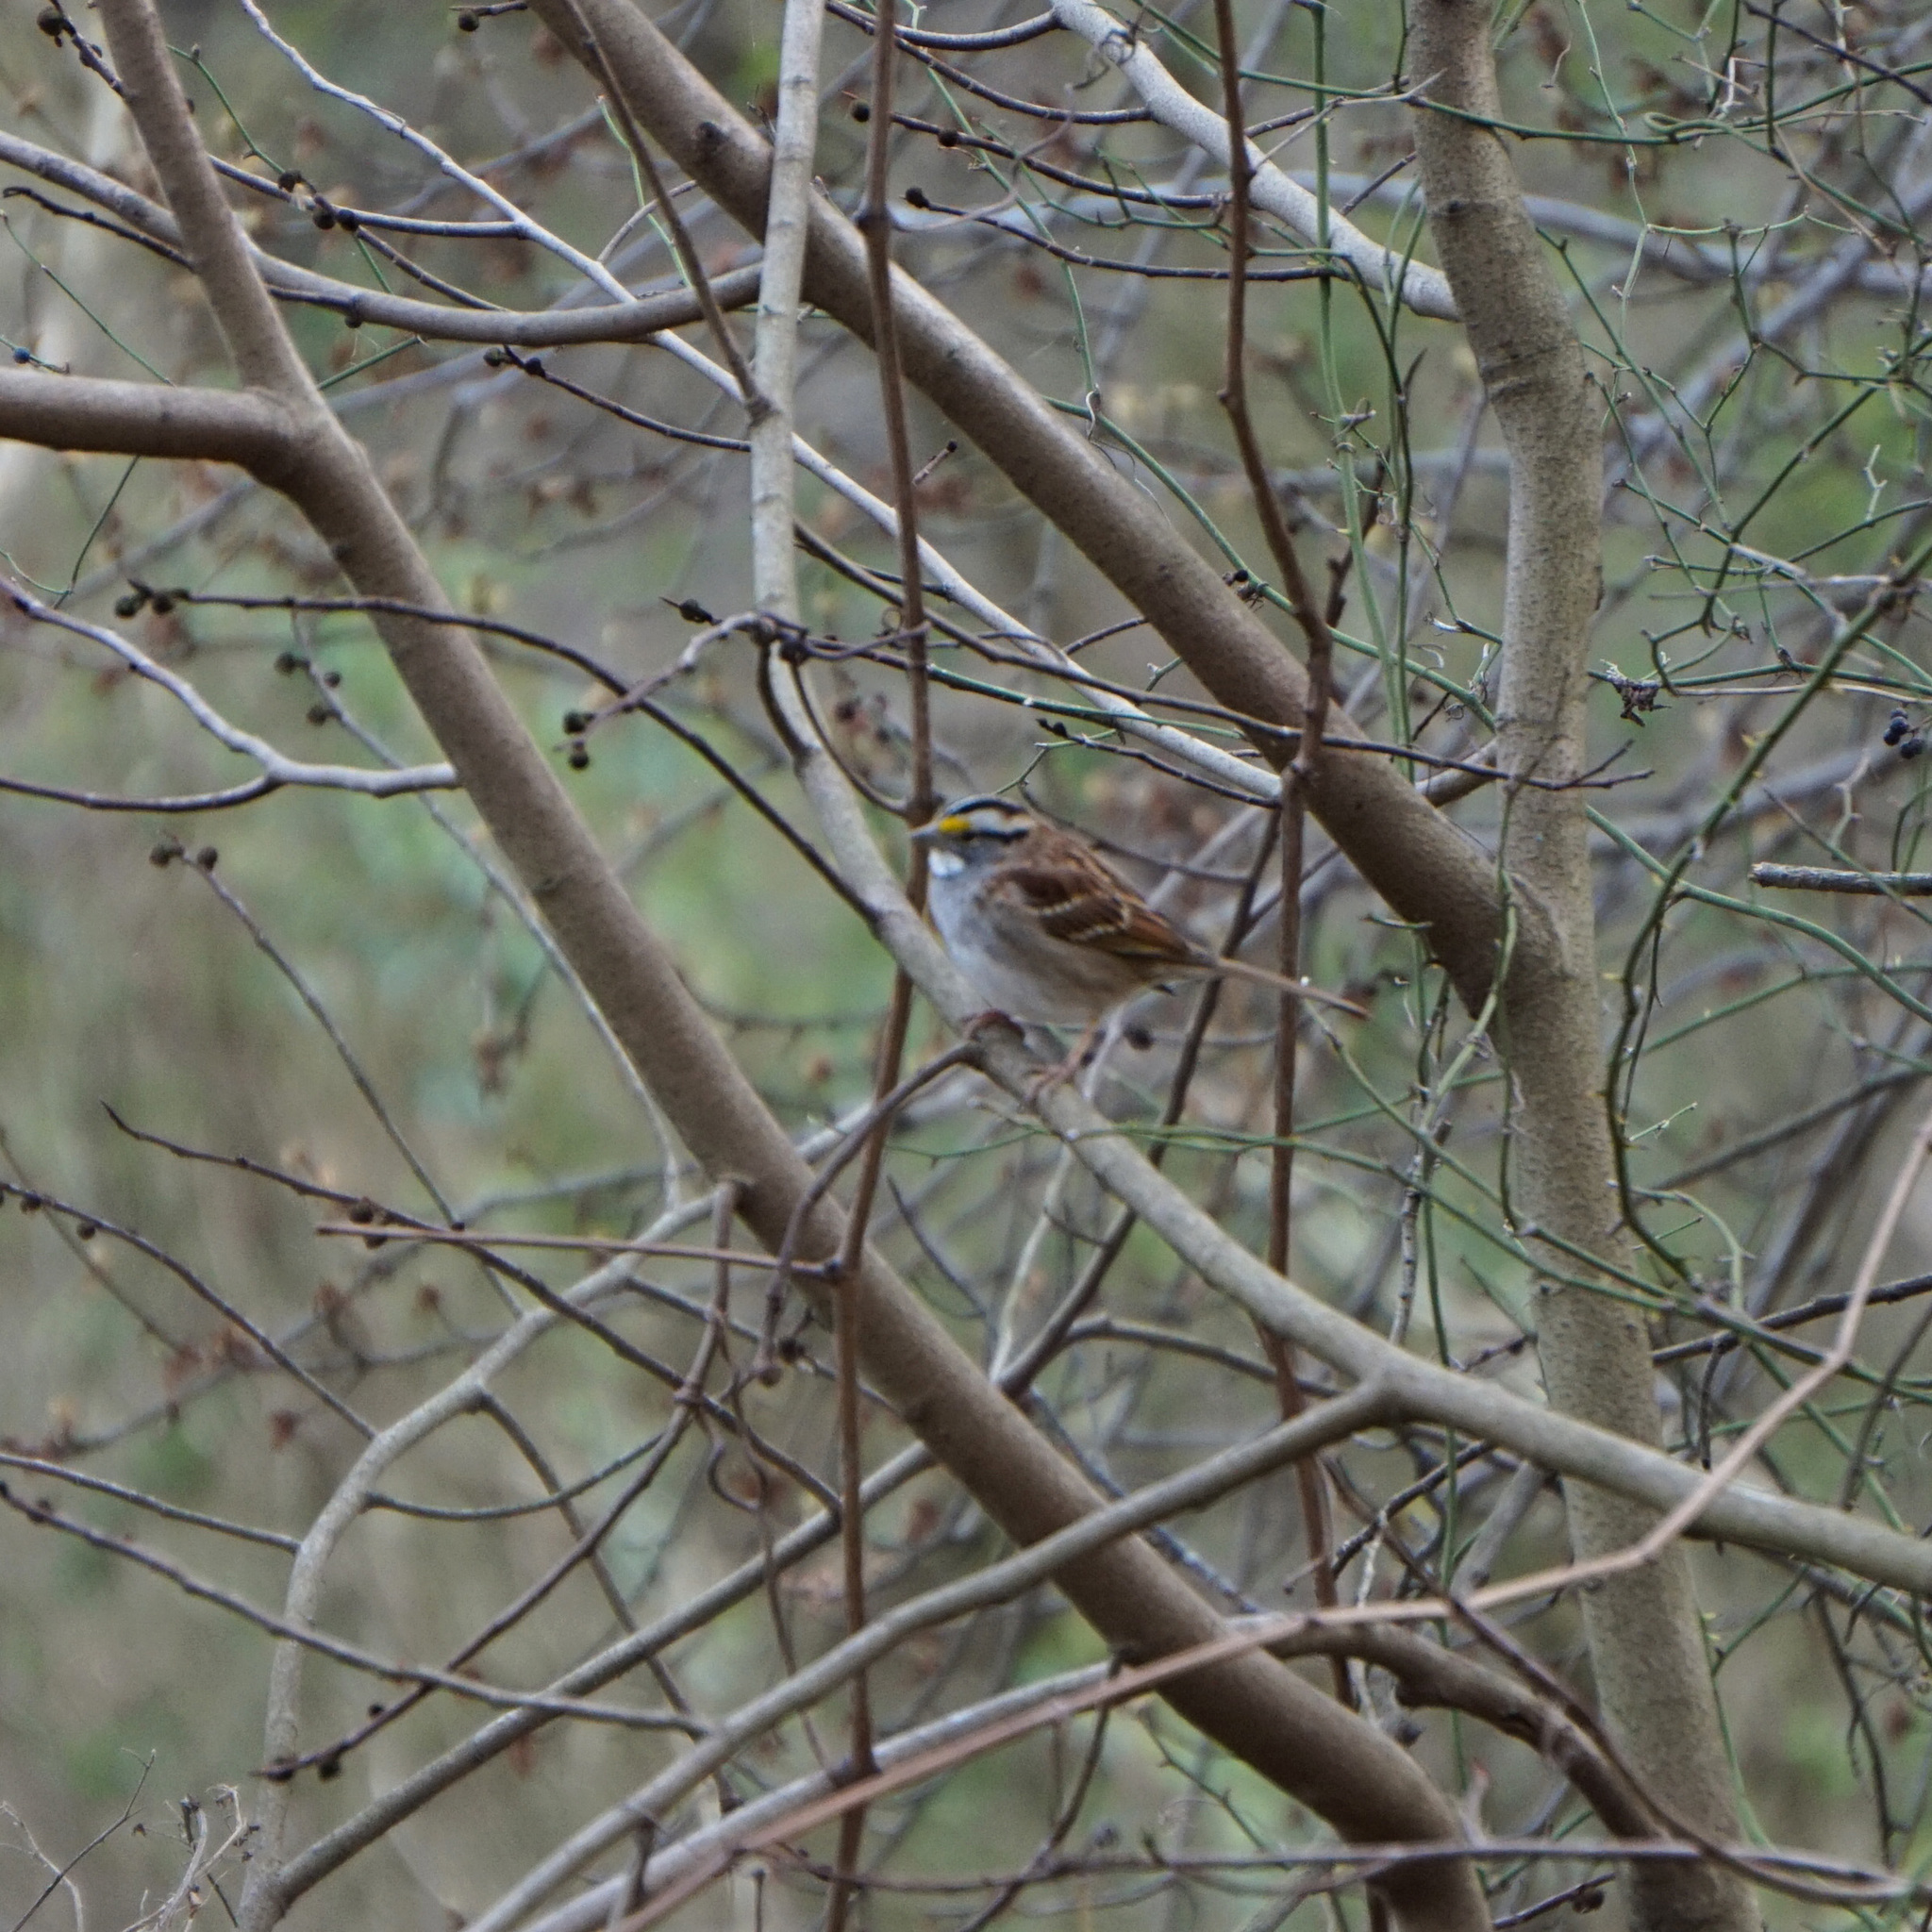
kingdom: Animalia
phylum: Chordata
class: Aves
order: Passeriformes
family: Passerellidae
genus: Zonotrichia
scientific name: Zonotrichia albicollis
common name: White-throated sparrow
